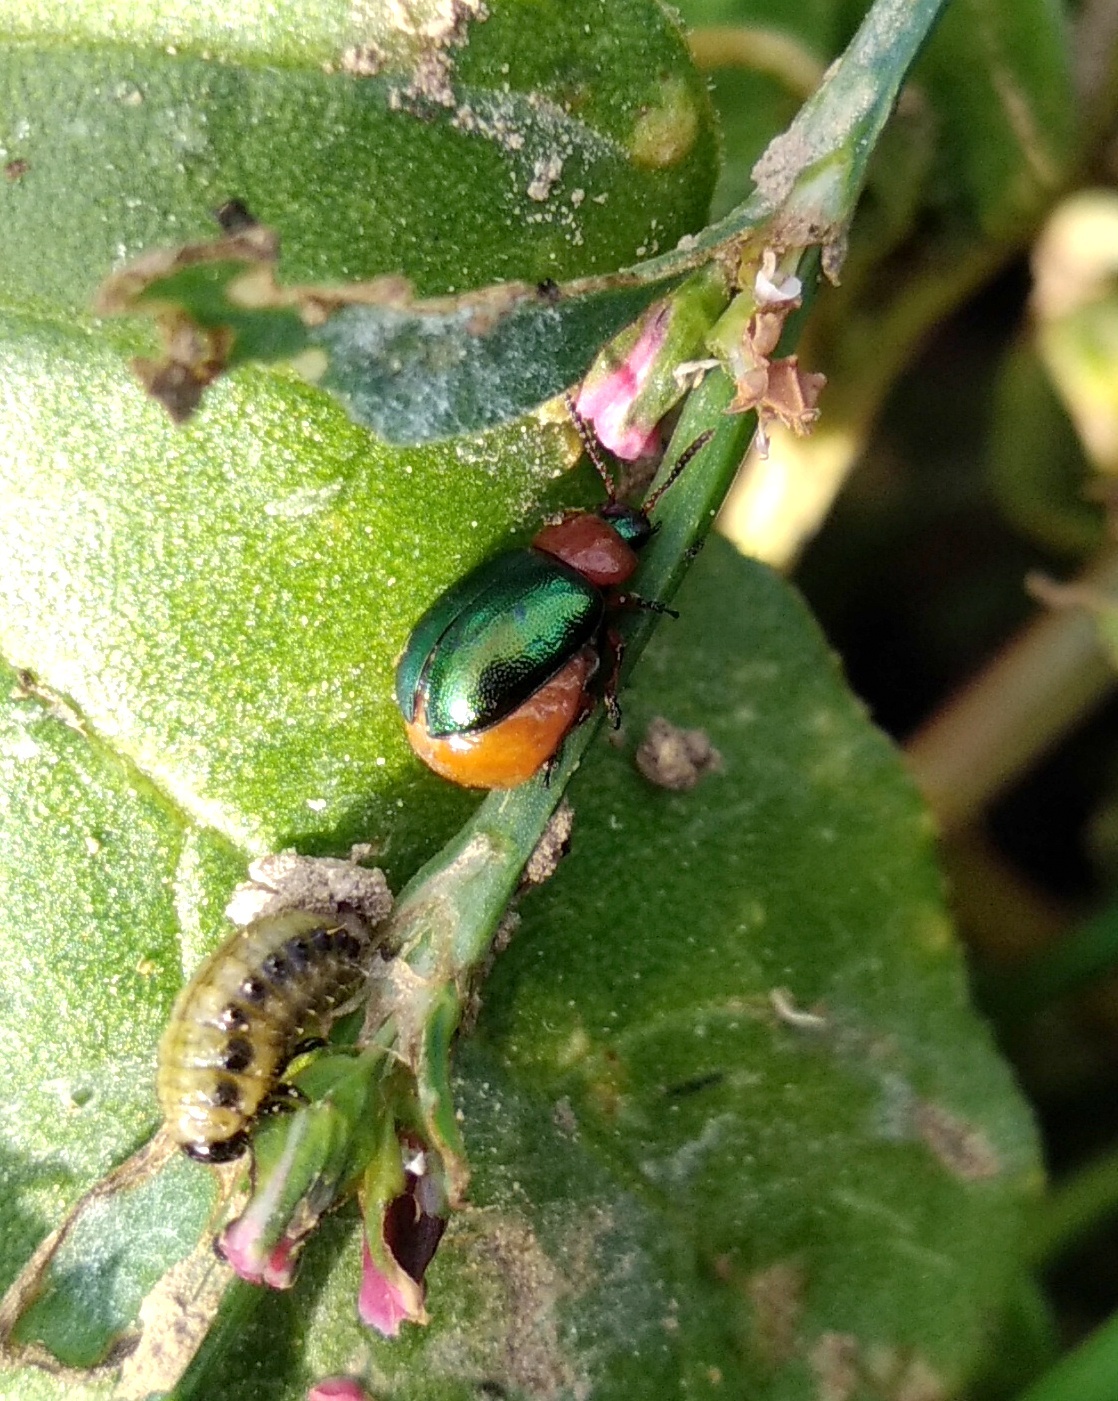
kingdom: Animalia
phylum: Arthropoda
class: Insecta
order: Coleoptera
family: Chrysomelidae
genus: Gastrophysa
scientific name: Gastrophysa polygoni
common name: Knotweed leaf beetle
